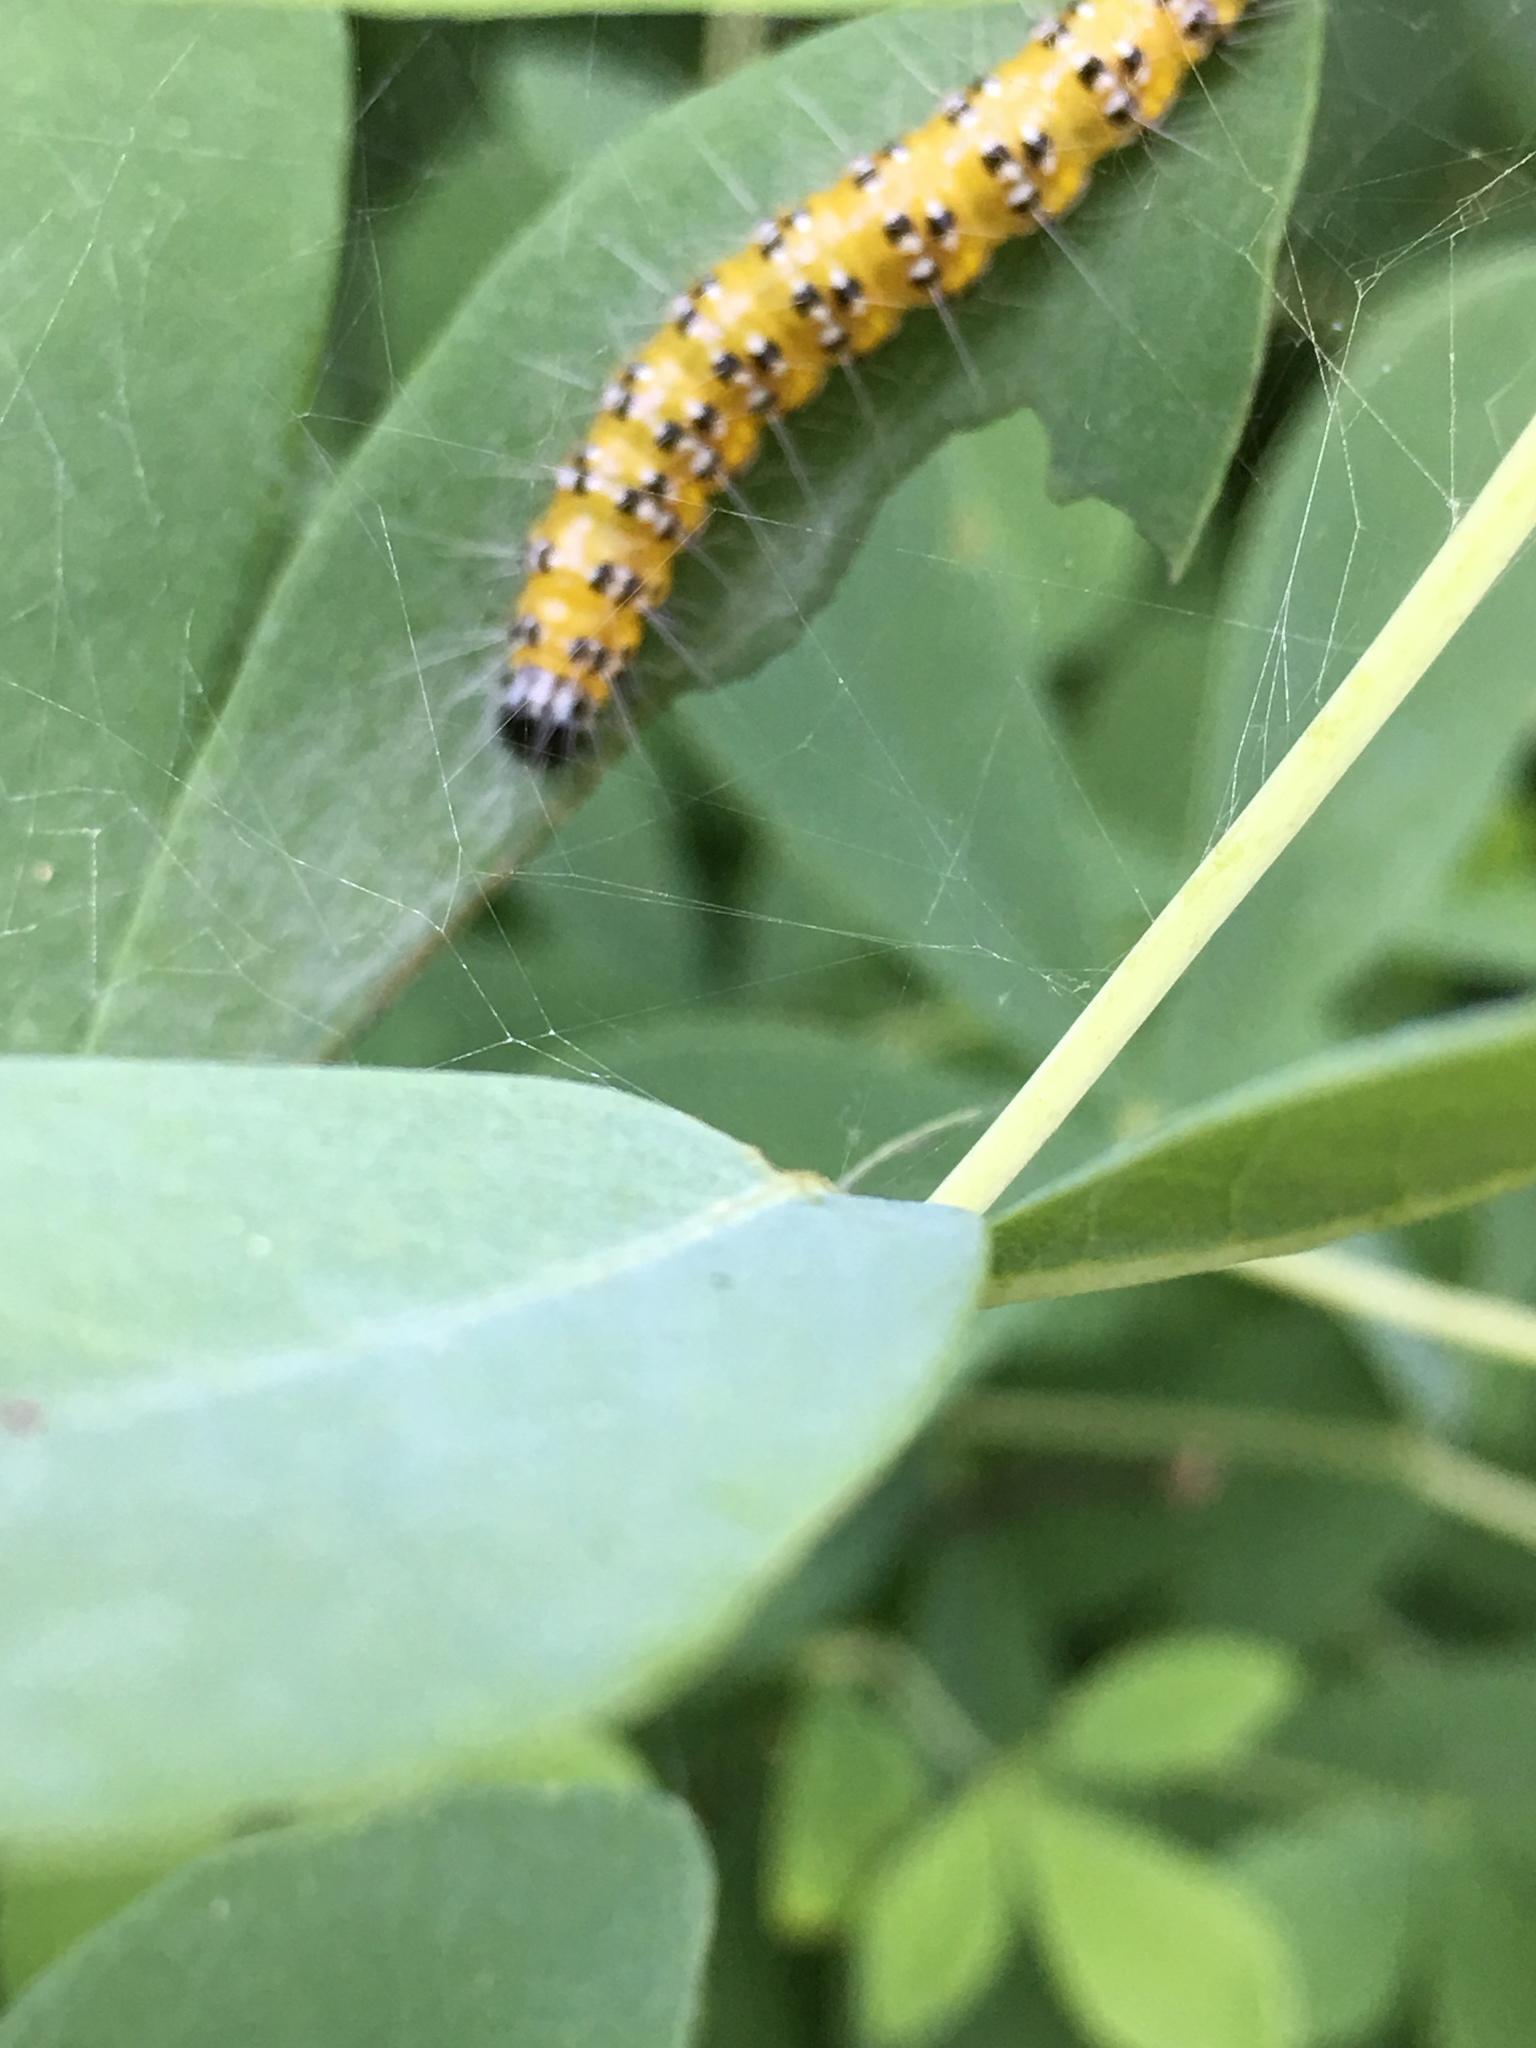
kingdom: Animalia
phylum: Arthropoda
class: Insecta
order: Lepidoptera
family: Crambidae
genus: Uresiphita
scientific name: Uresiphita reversalis
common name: Genista broom moth
